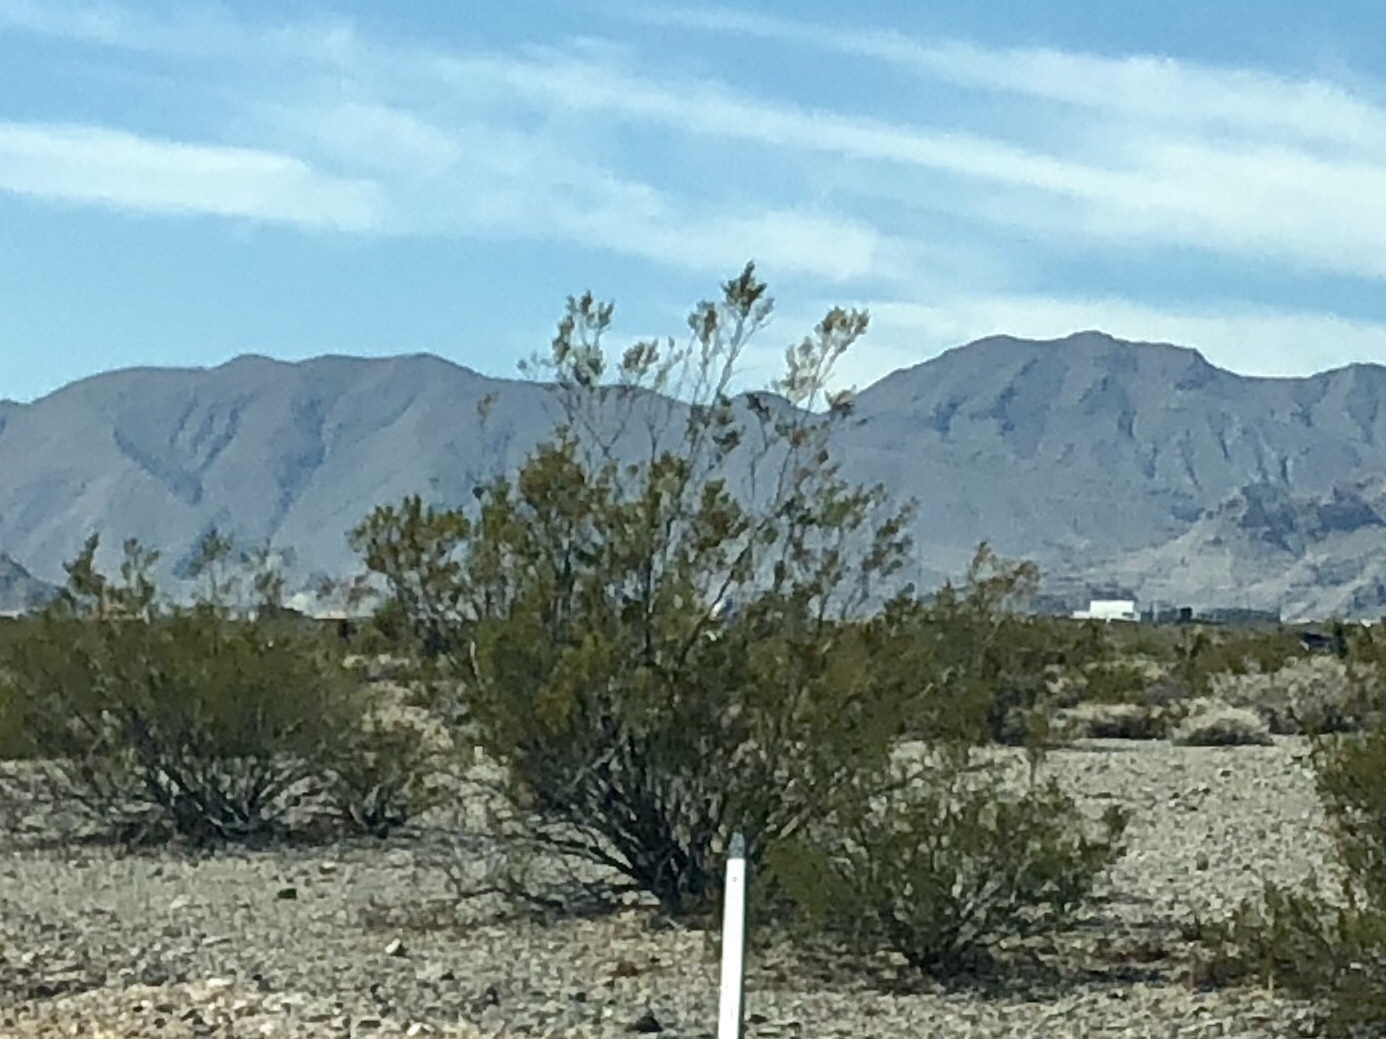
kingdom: Plantae
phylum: Tracheophyta
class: Magnoliopsida
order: Zygophyllales
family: Zygophyllaceae
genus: Larrea
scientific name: Larrea tridentata
